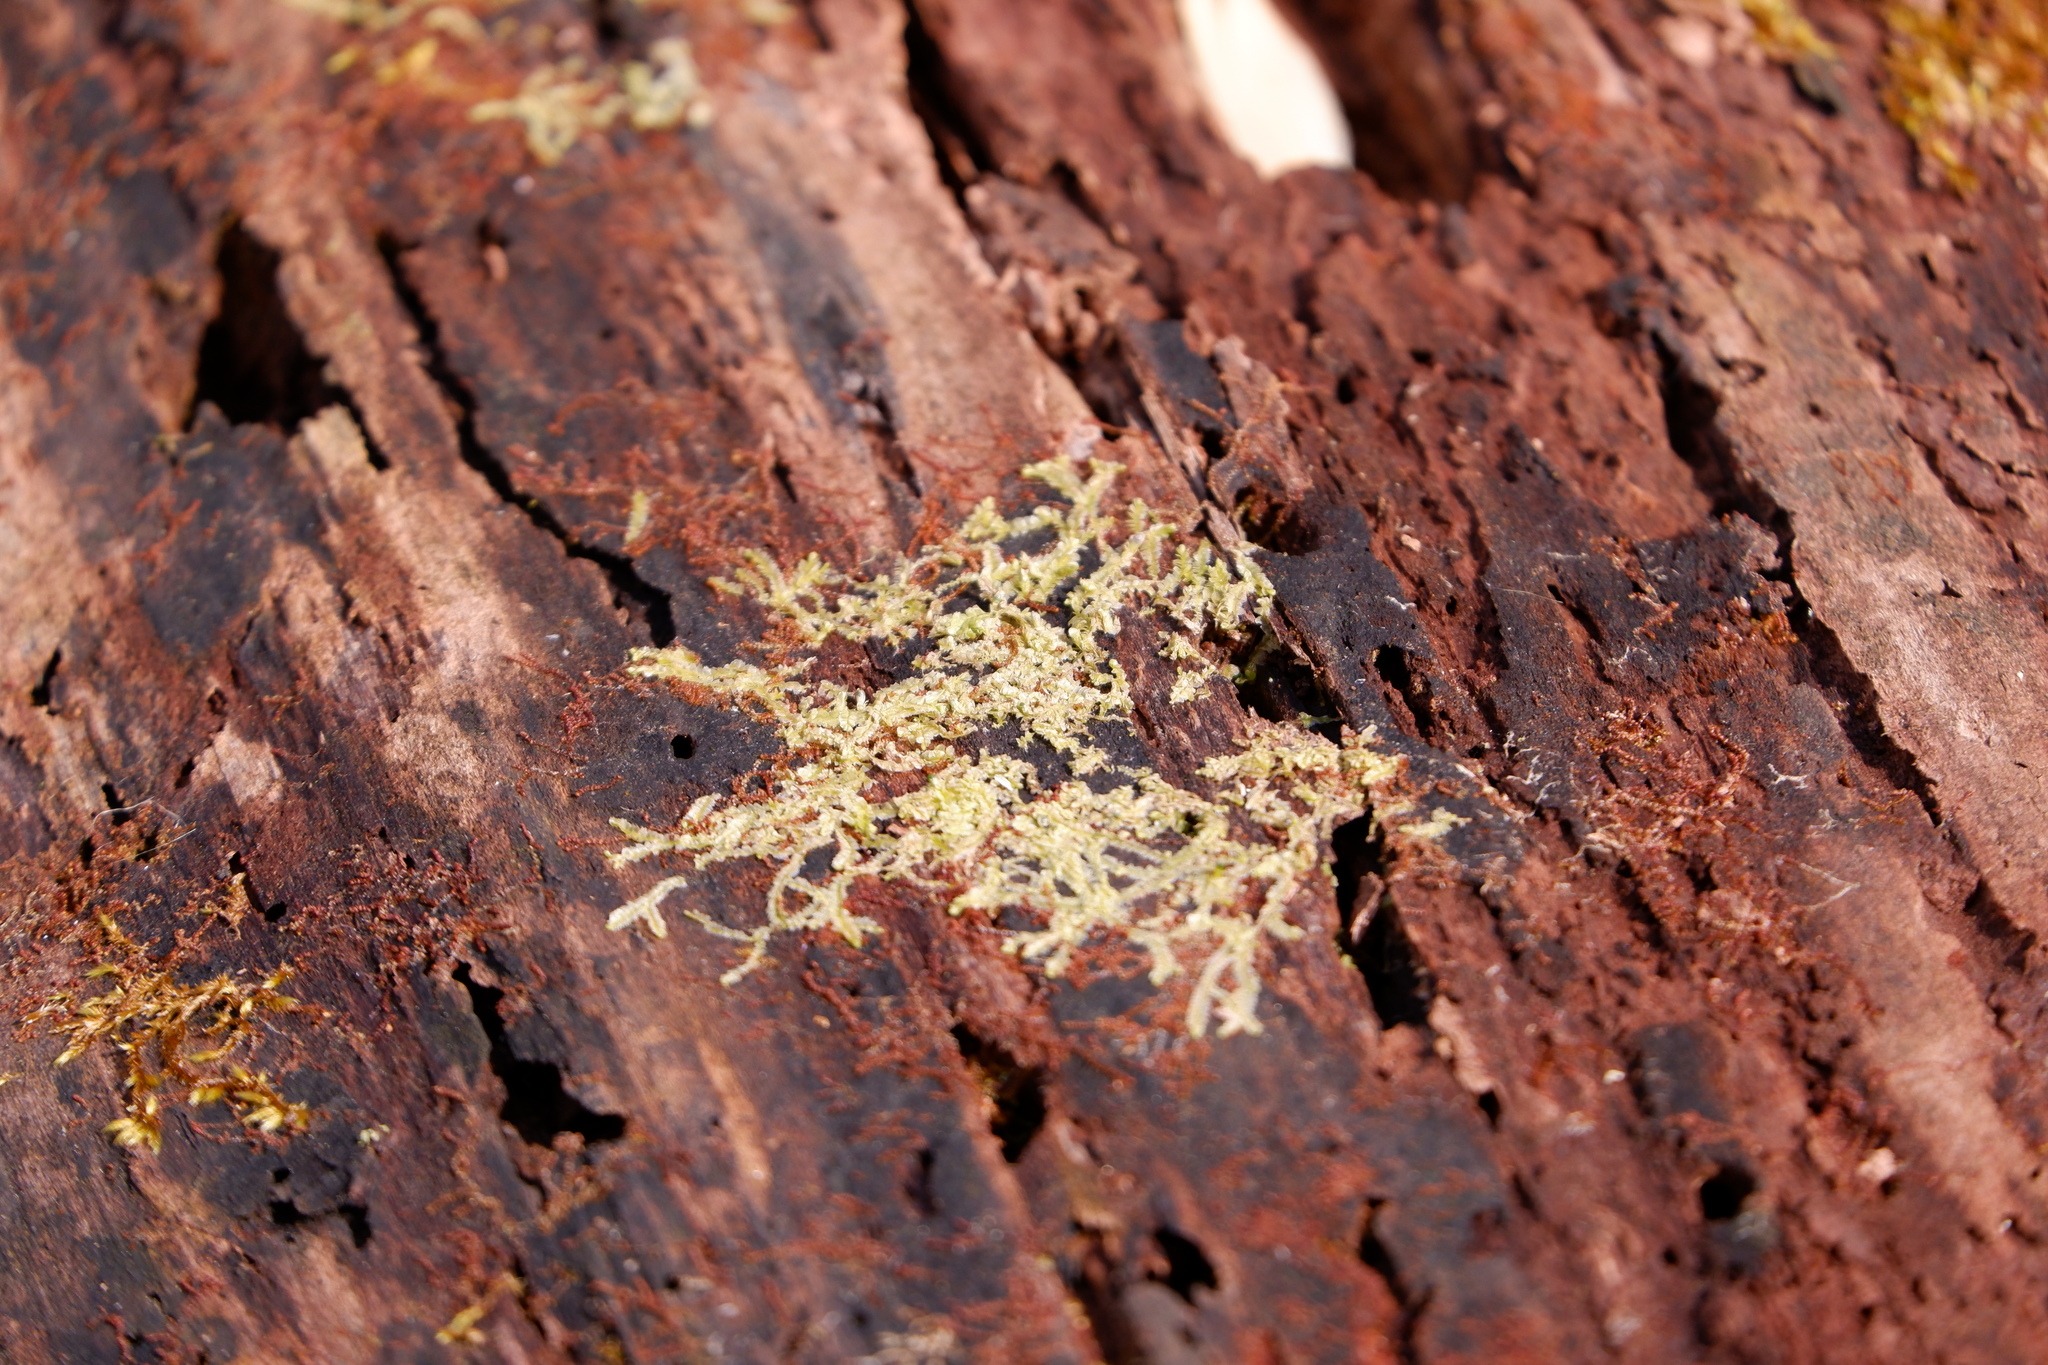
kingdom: Plantae
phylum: Marchantiophyta
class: Jungermanniopsida
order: Jungermanniales
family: Cephaloziaceae
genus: Nowellia
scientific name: Nowellia curvifolia
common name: Wood rustwort
